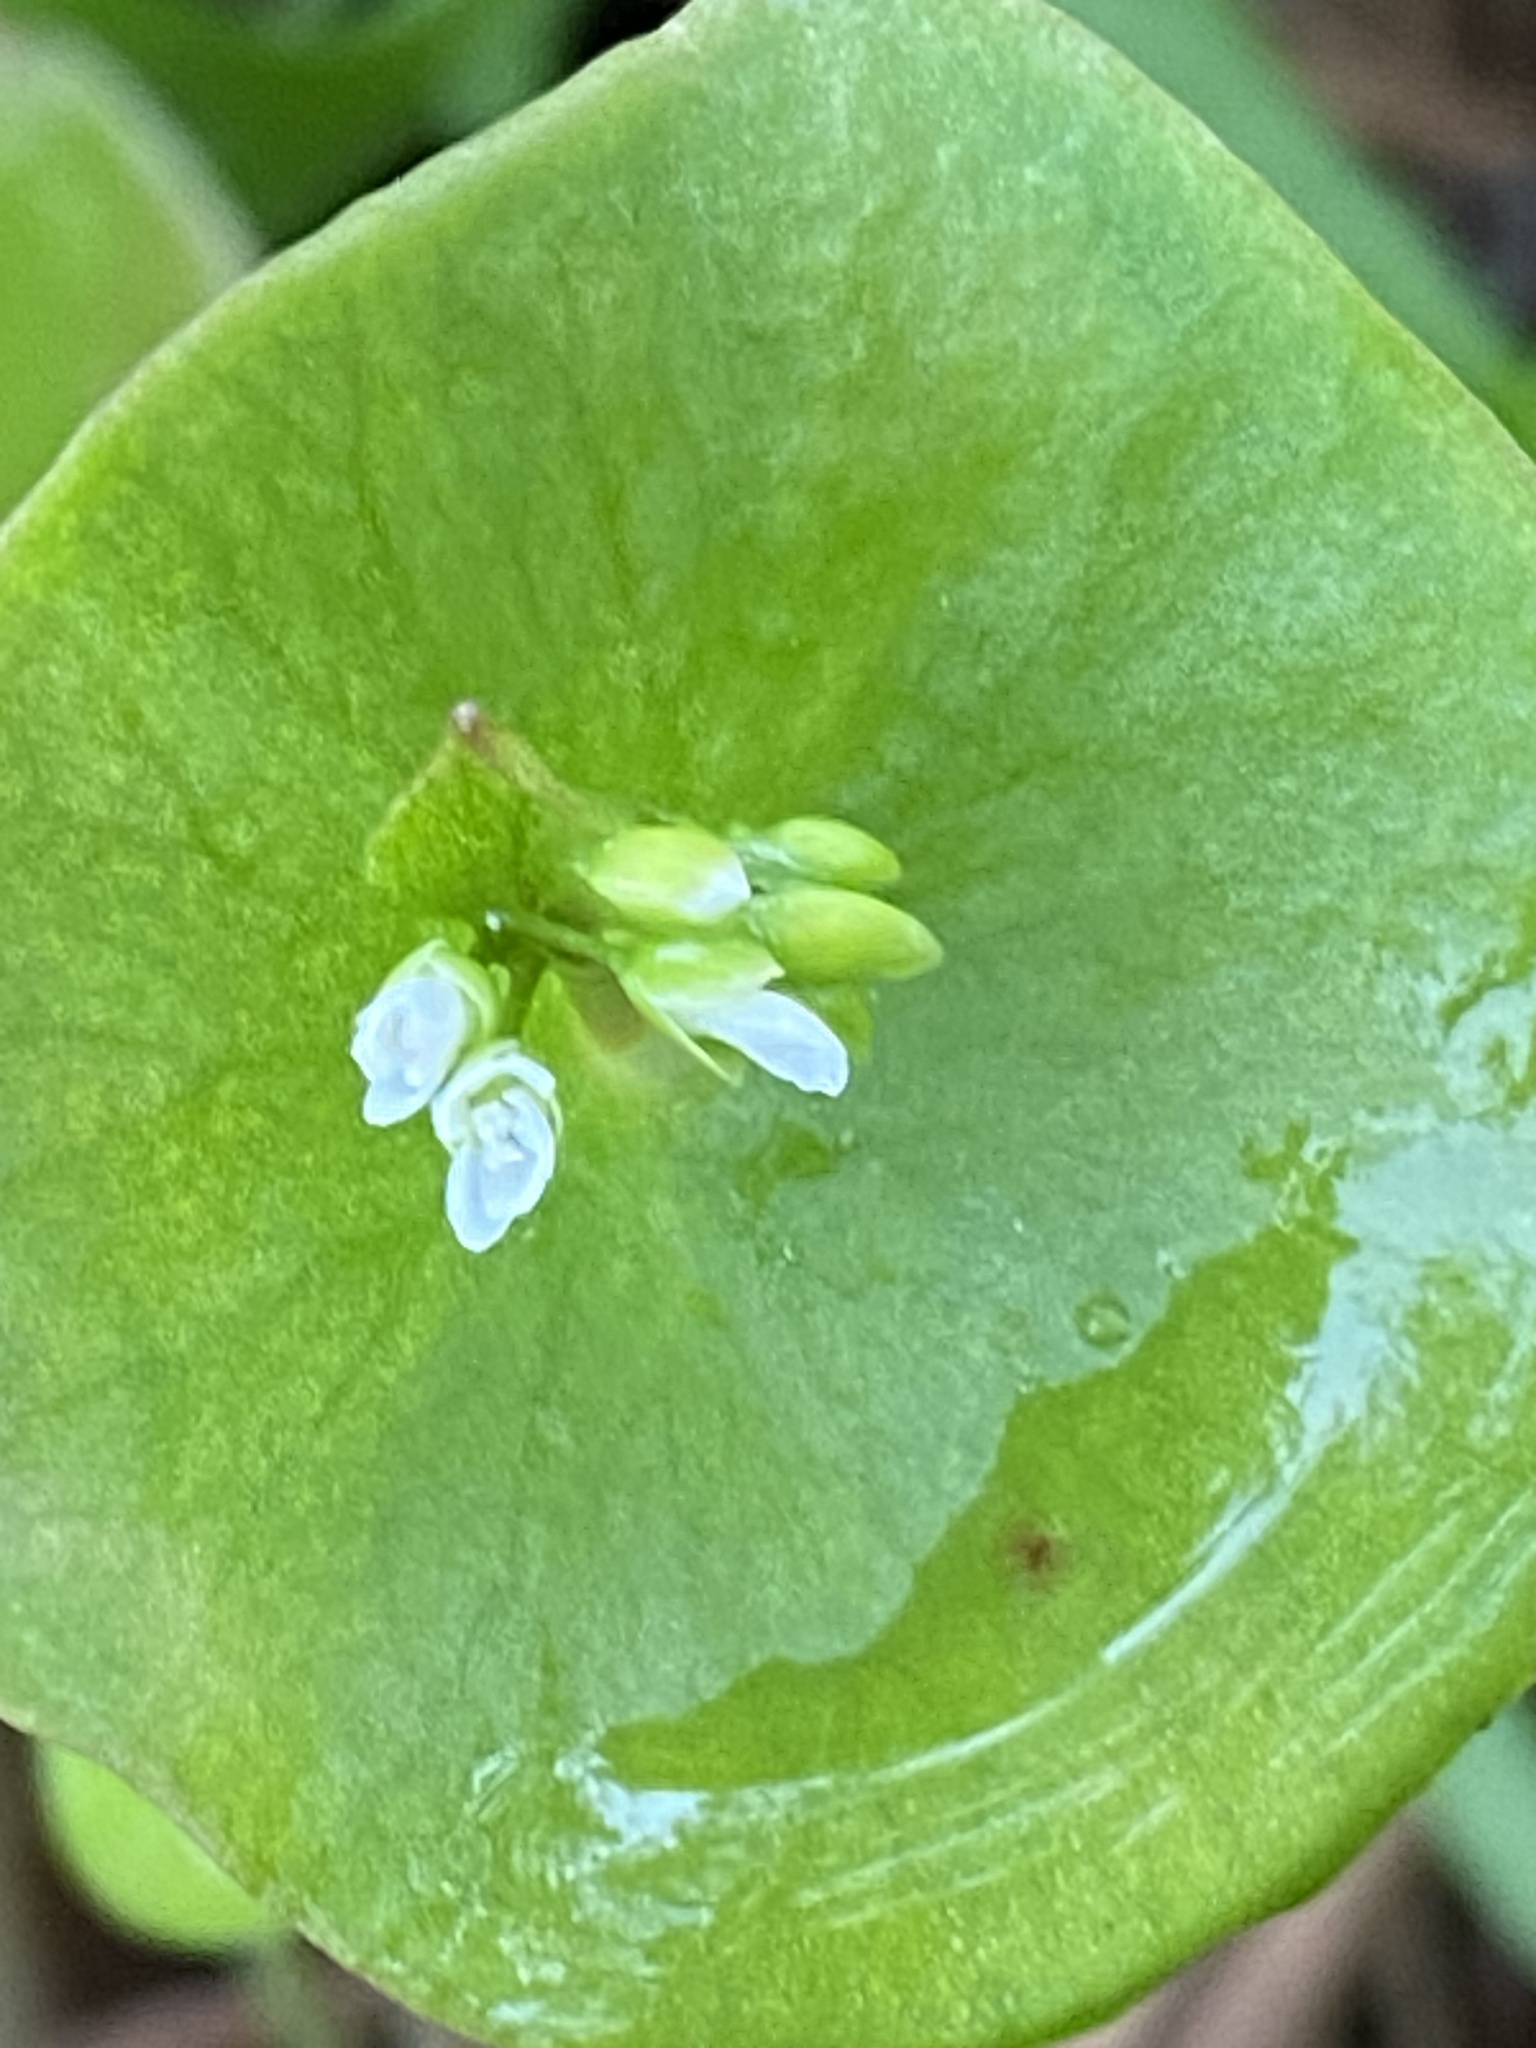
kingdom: Plantae
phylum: Tracheophyta
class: Magnoliopsida
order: Caryophyllales
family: Montiaceae
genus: Claytonia
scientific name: Claytonia perfoliata
